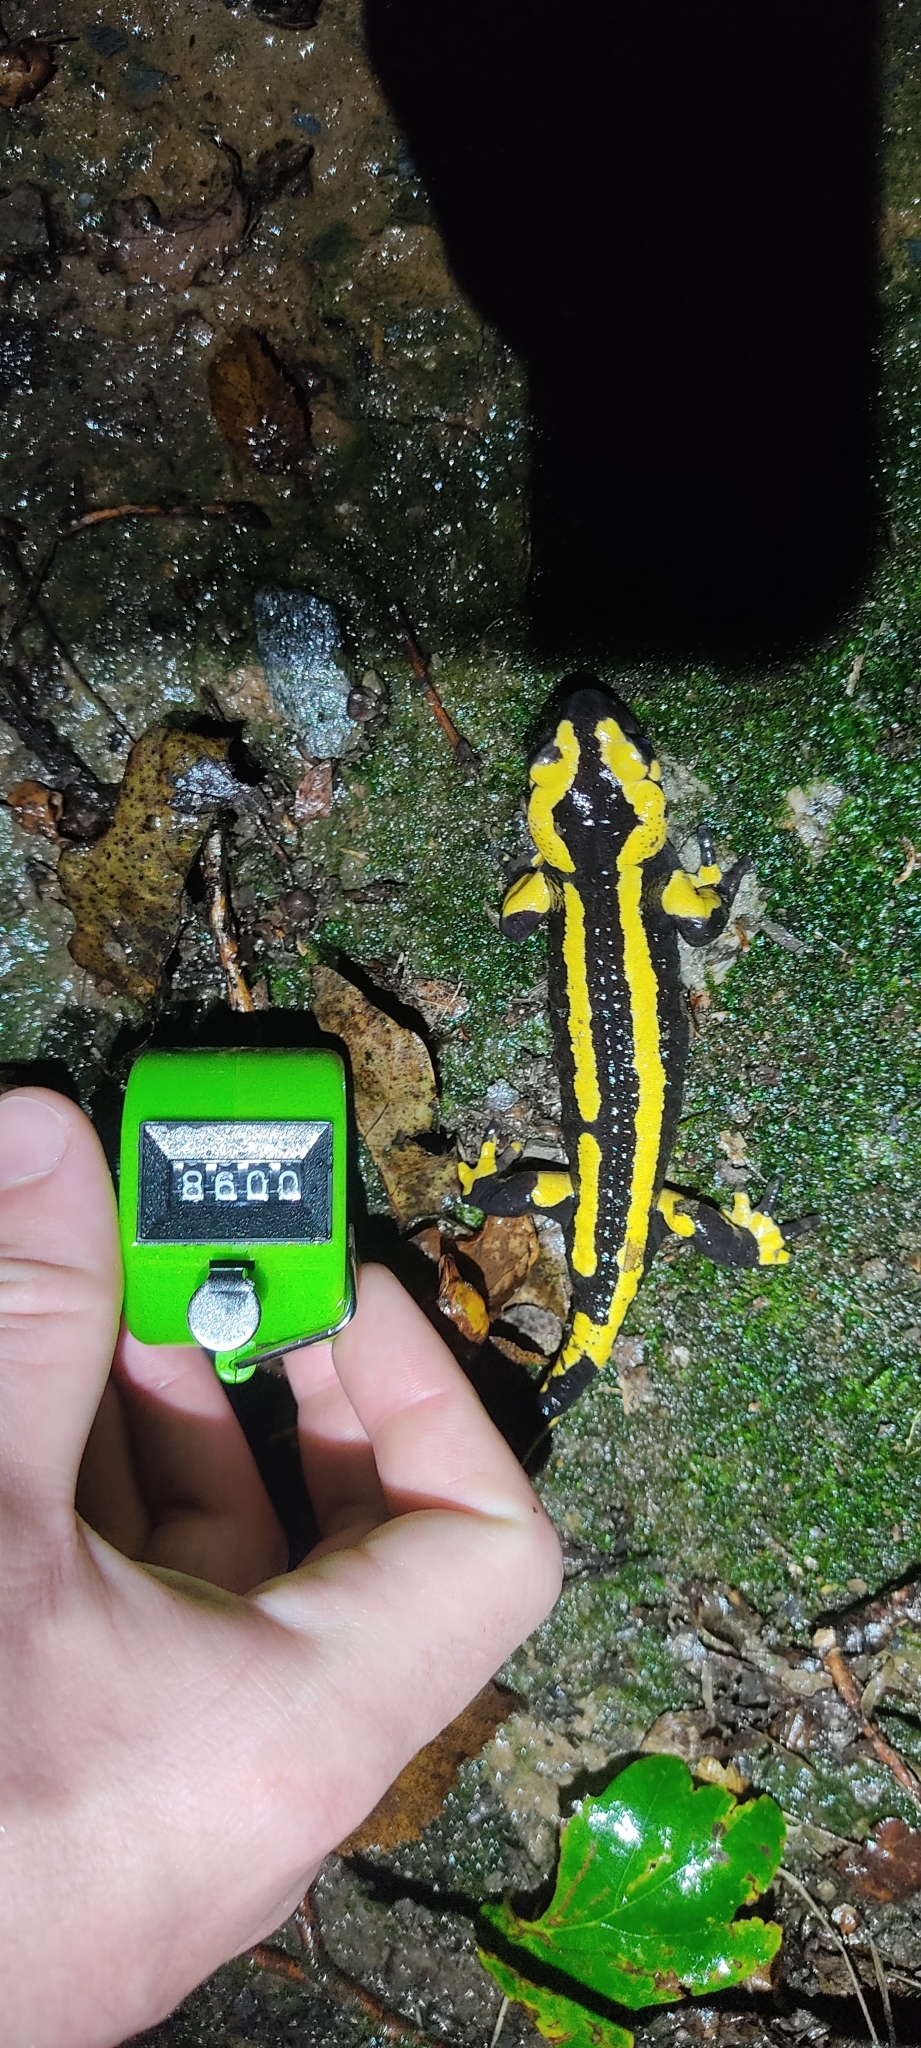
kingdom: Animalia
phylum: Chordata
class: Amphibia
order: Caudata
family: Salamandridae
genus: Salamandra
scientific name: Salamandra salamandra
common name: Fire salamander
